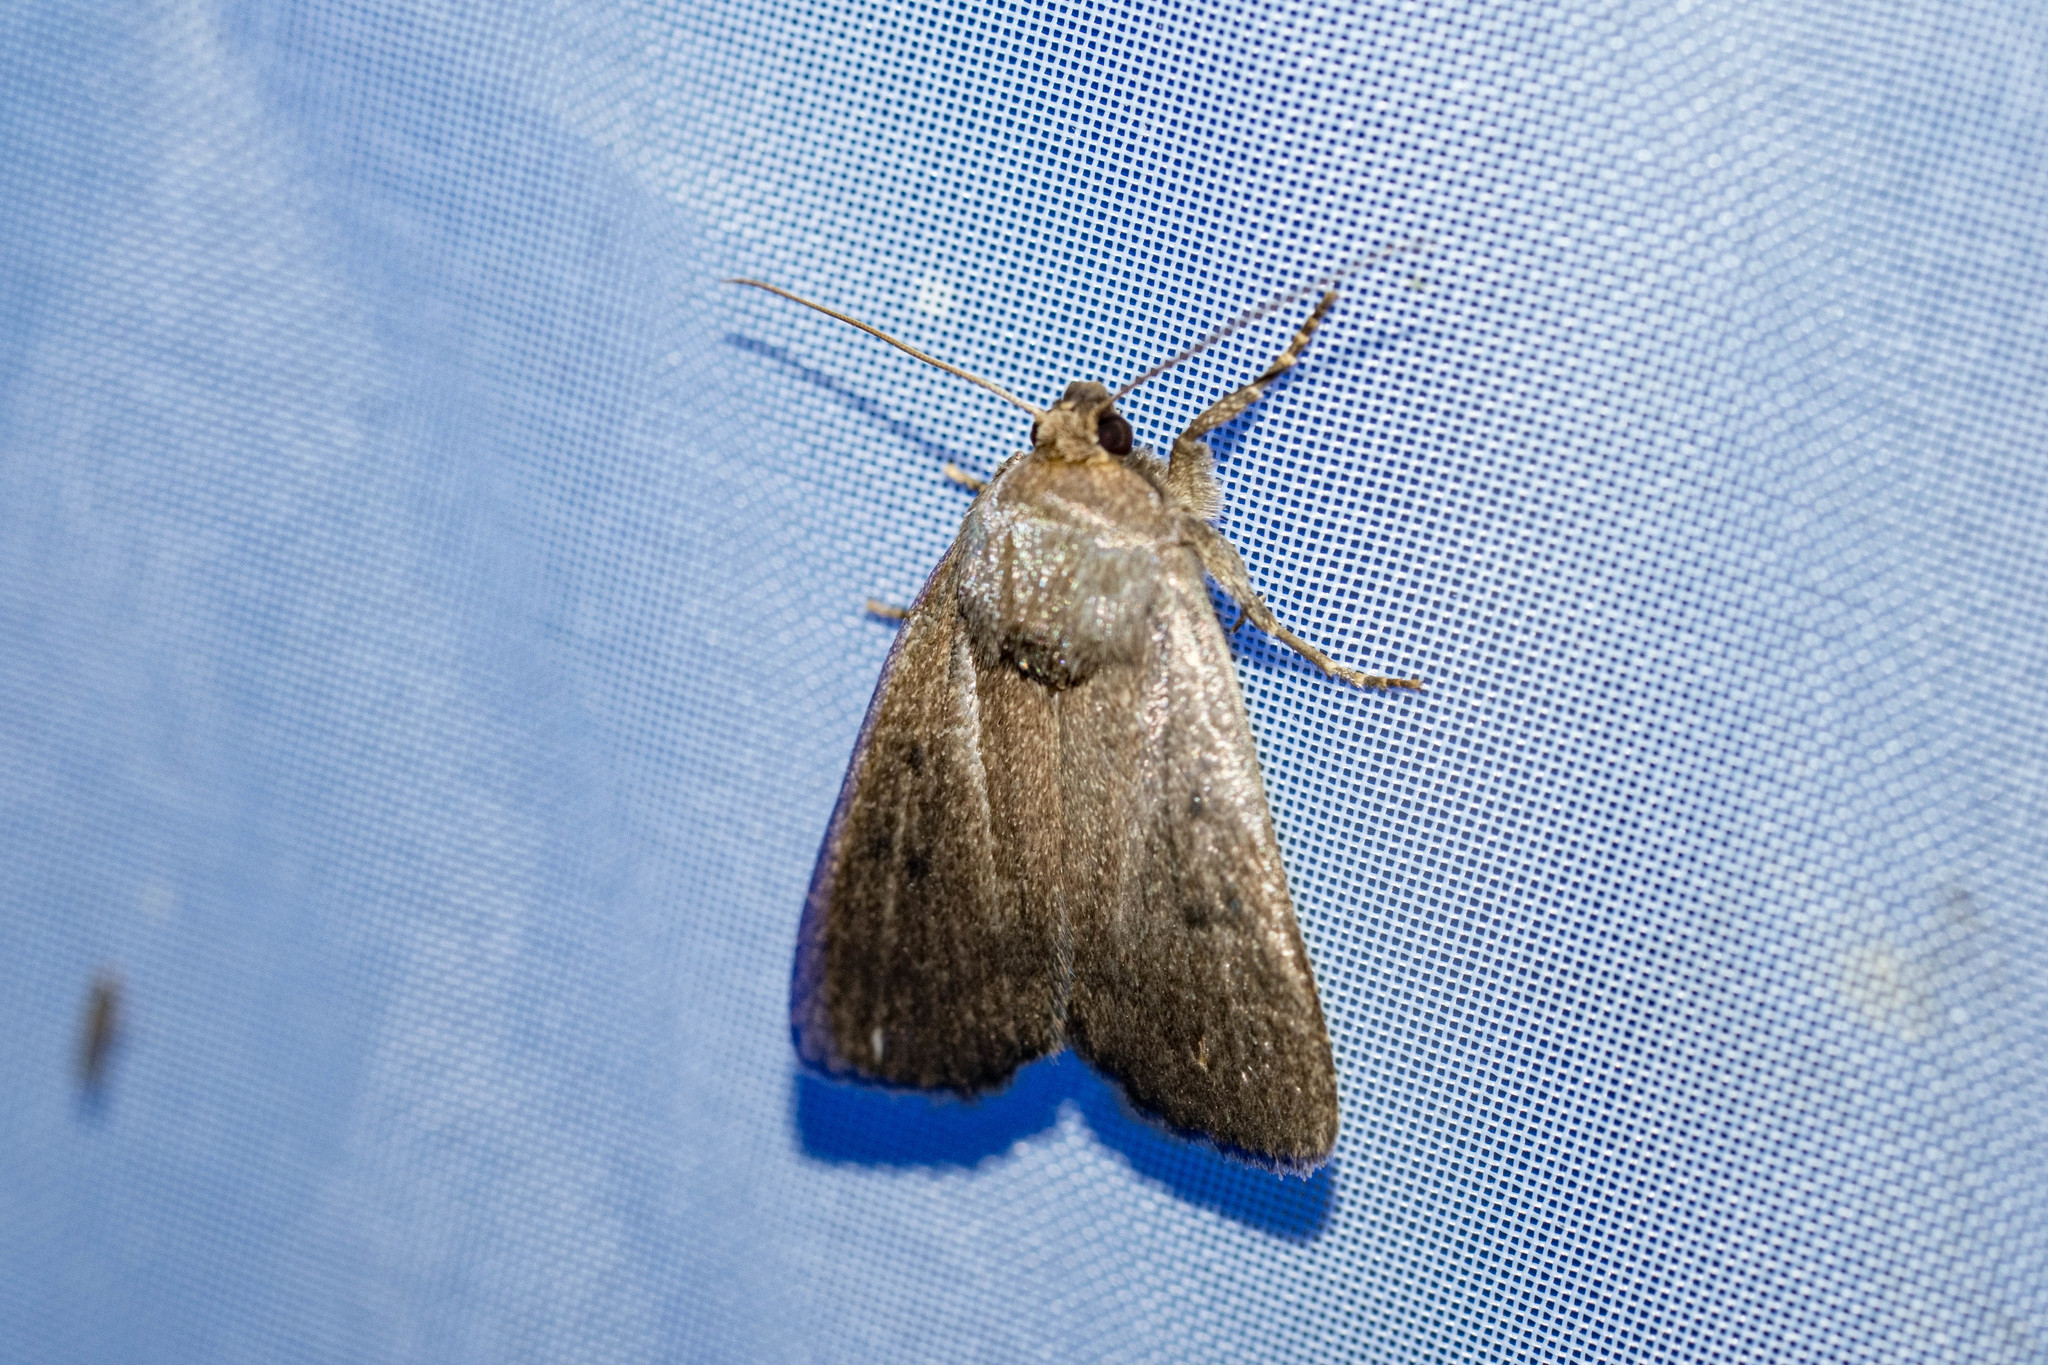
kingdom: Animalia
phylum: Arthropoda
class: Insecta
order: Lepidoptera
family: Noctuidae
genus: Amphipyra
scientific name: Amphipyra tragopoginis
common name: Mouse moth
